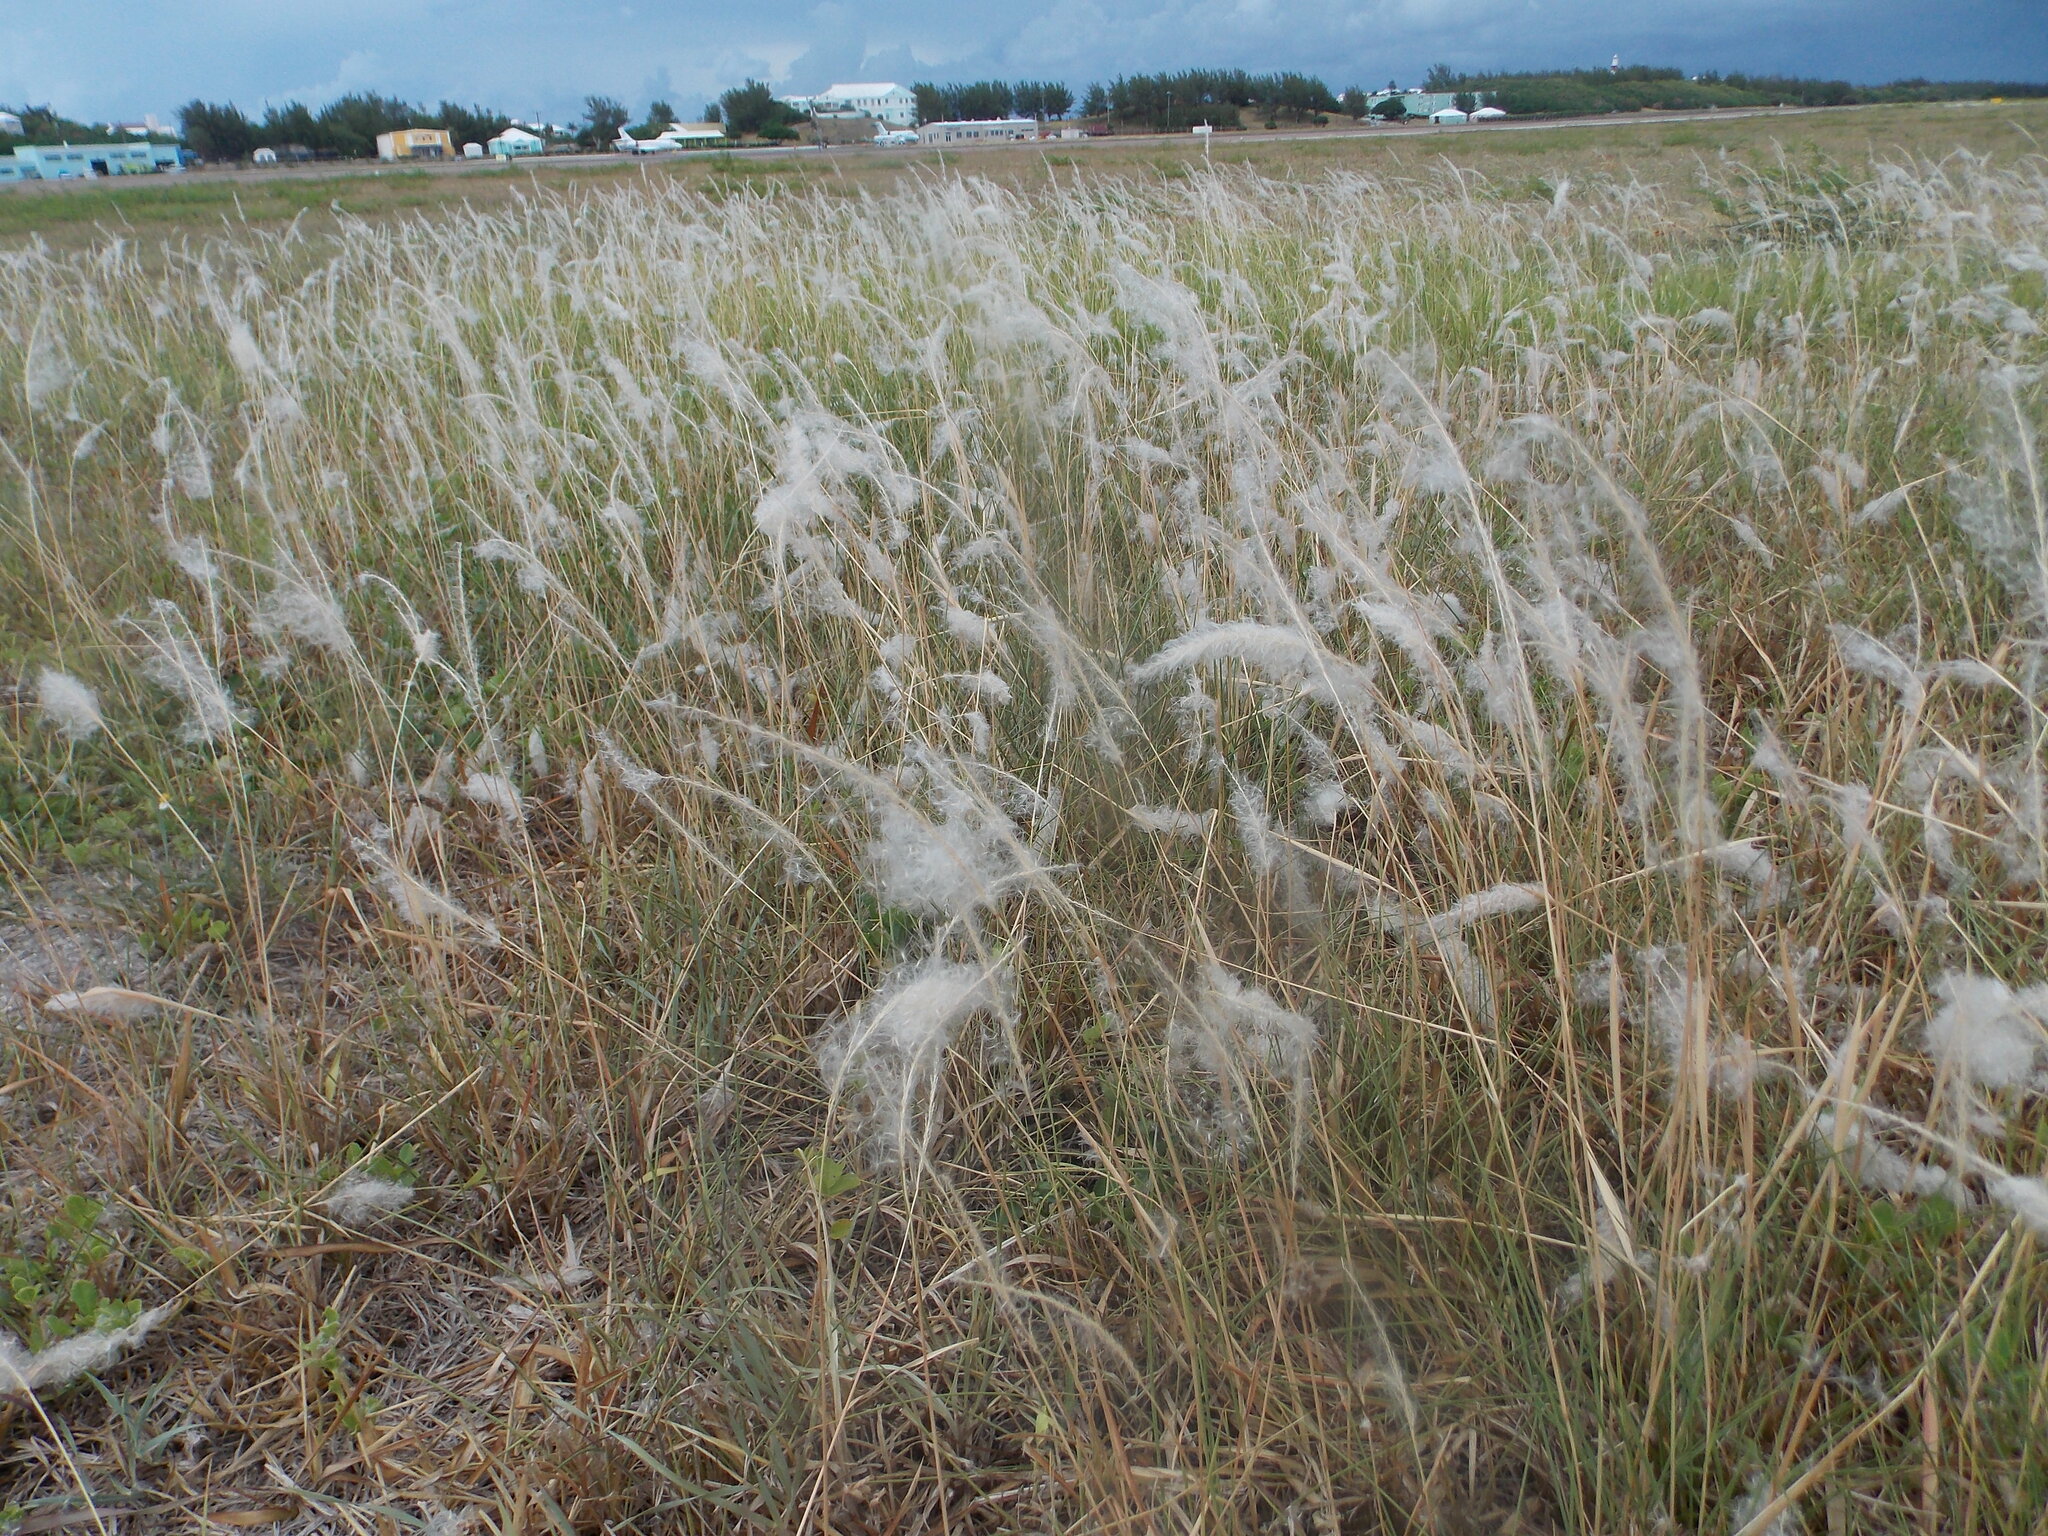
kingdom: Plantae
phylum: Tracheophyta
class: Liliopsida
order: Poales
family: Poaceae
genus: Imperata
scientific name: Imperata cylindrica
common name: Cogongrass
